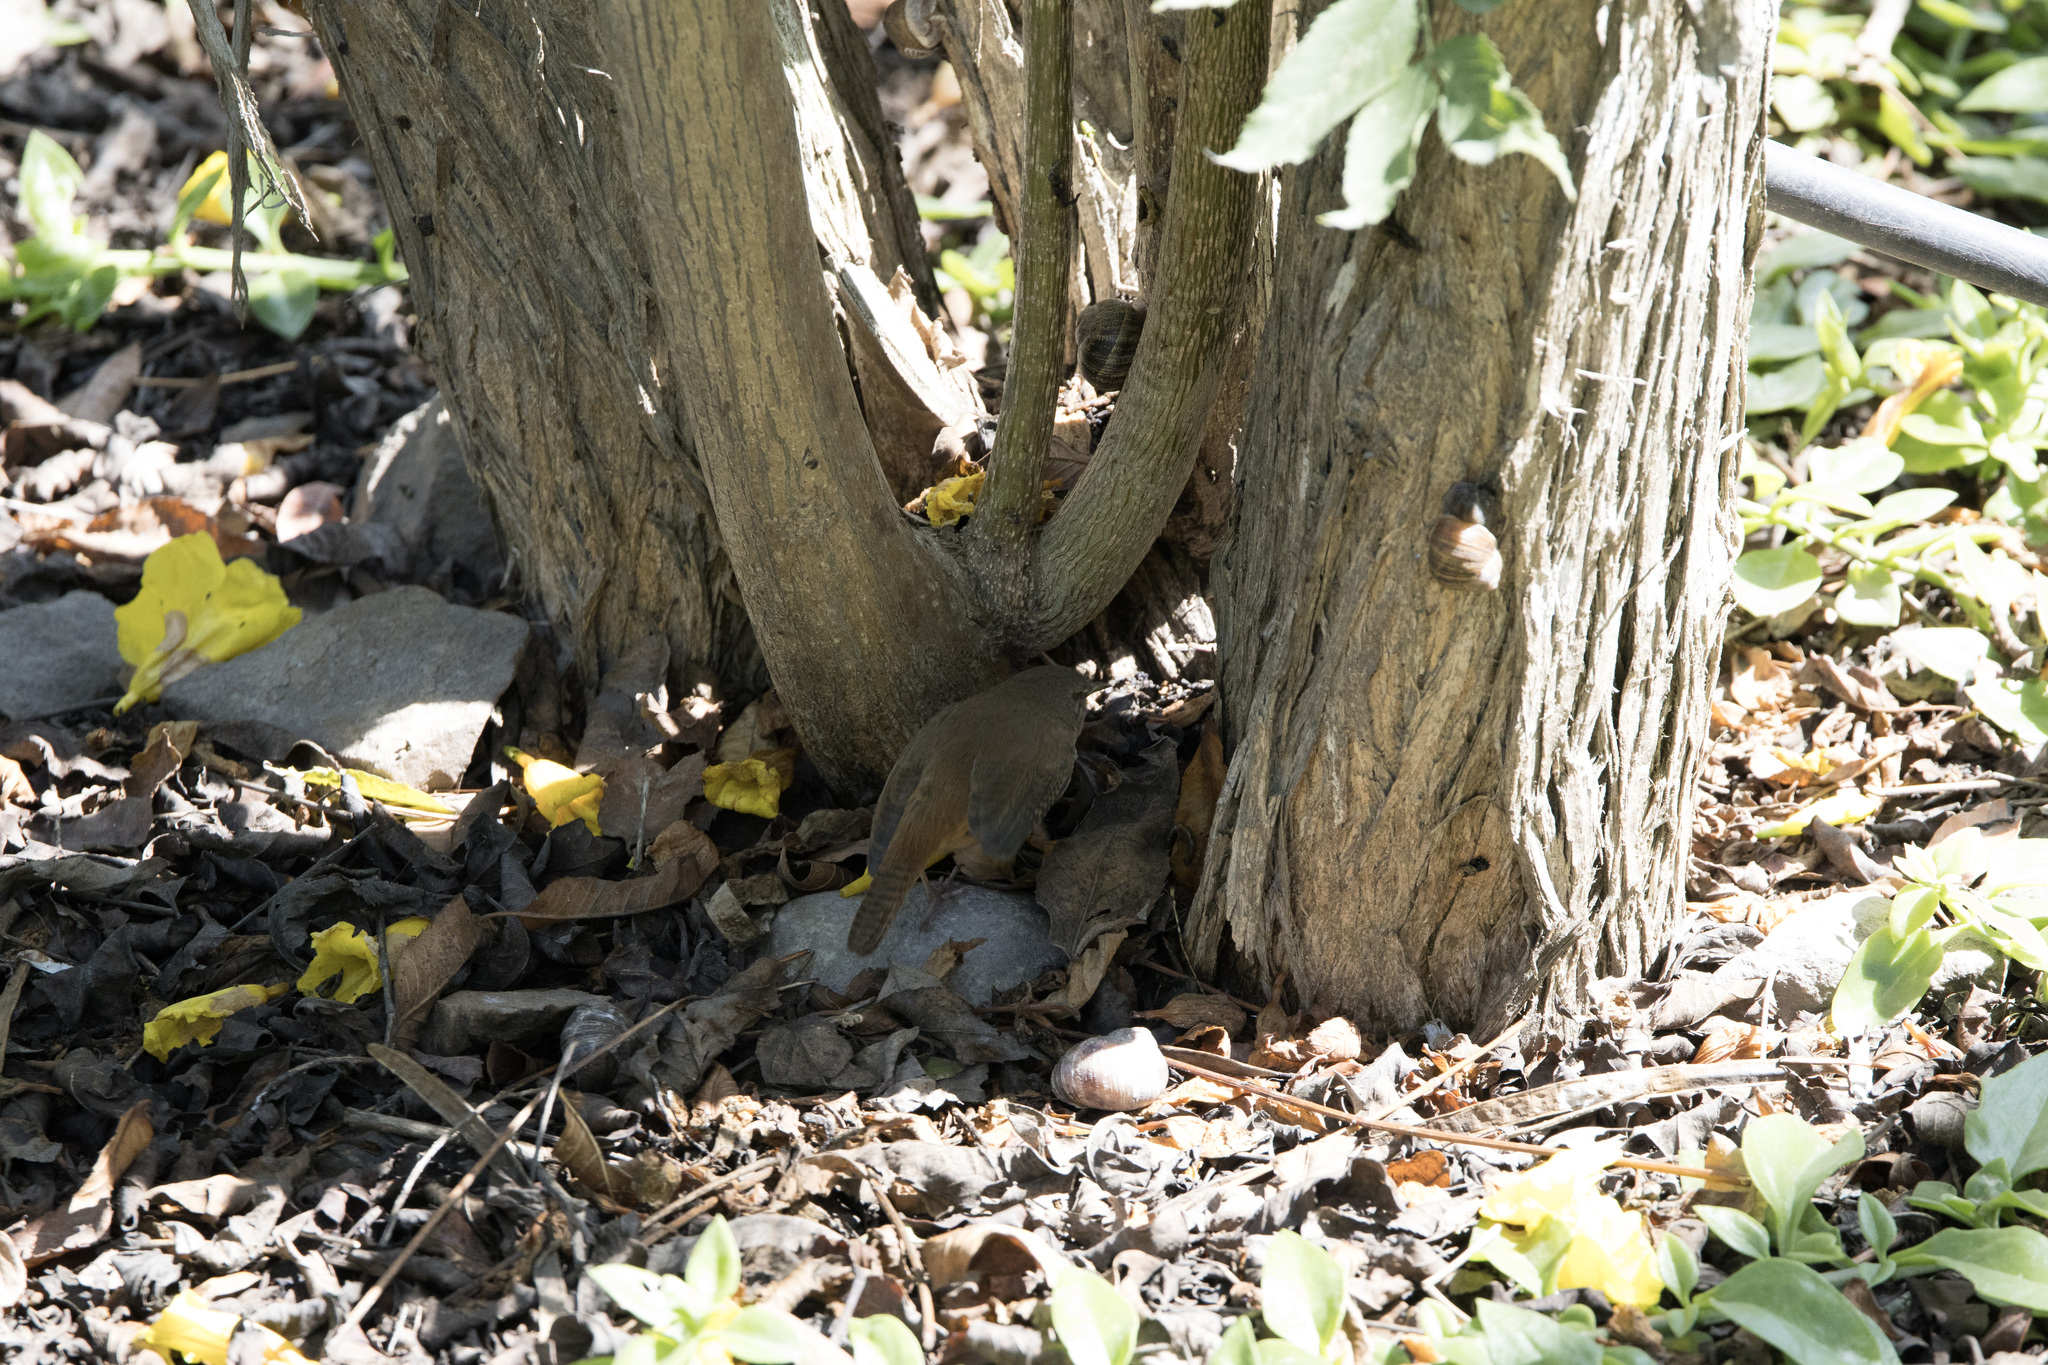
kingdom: Animalia
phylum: Chordata
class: Aves
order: Passeriformes
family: Troglodytidae
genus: Troglodytes
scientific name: Troglodytes aedon
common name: House wren
